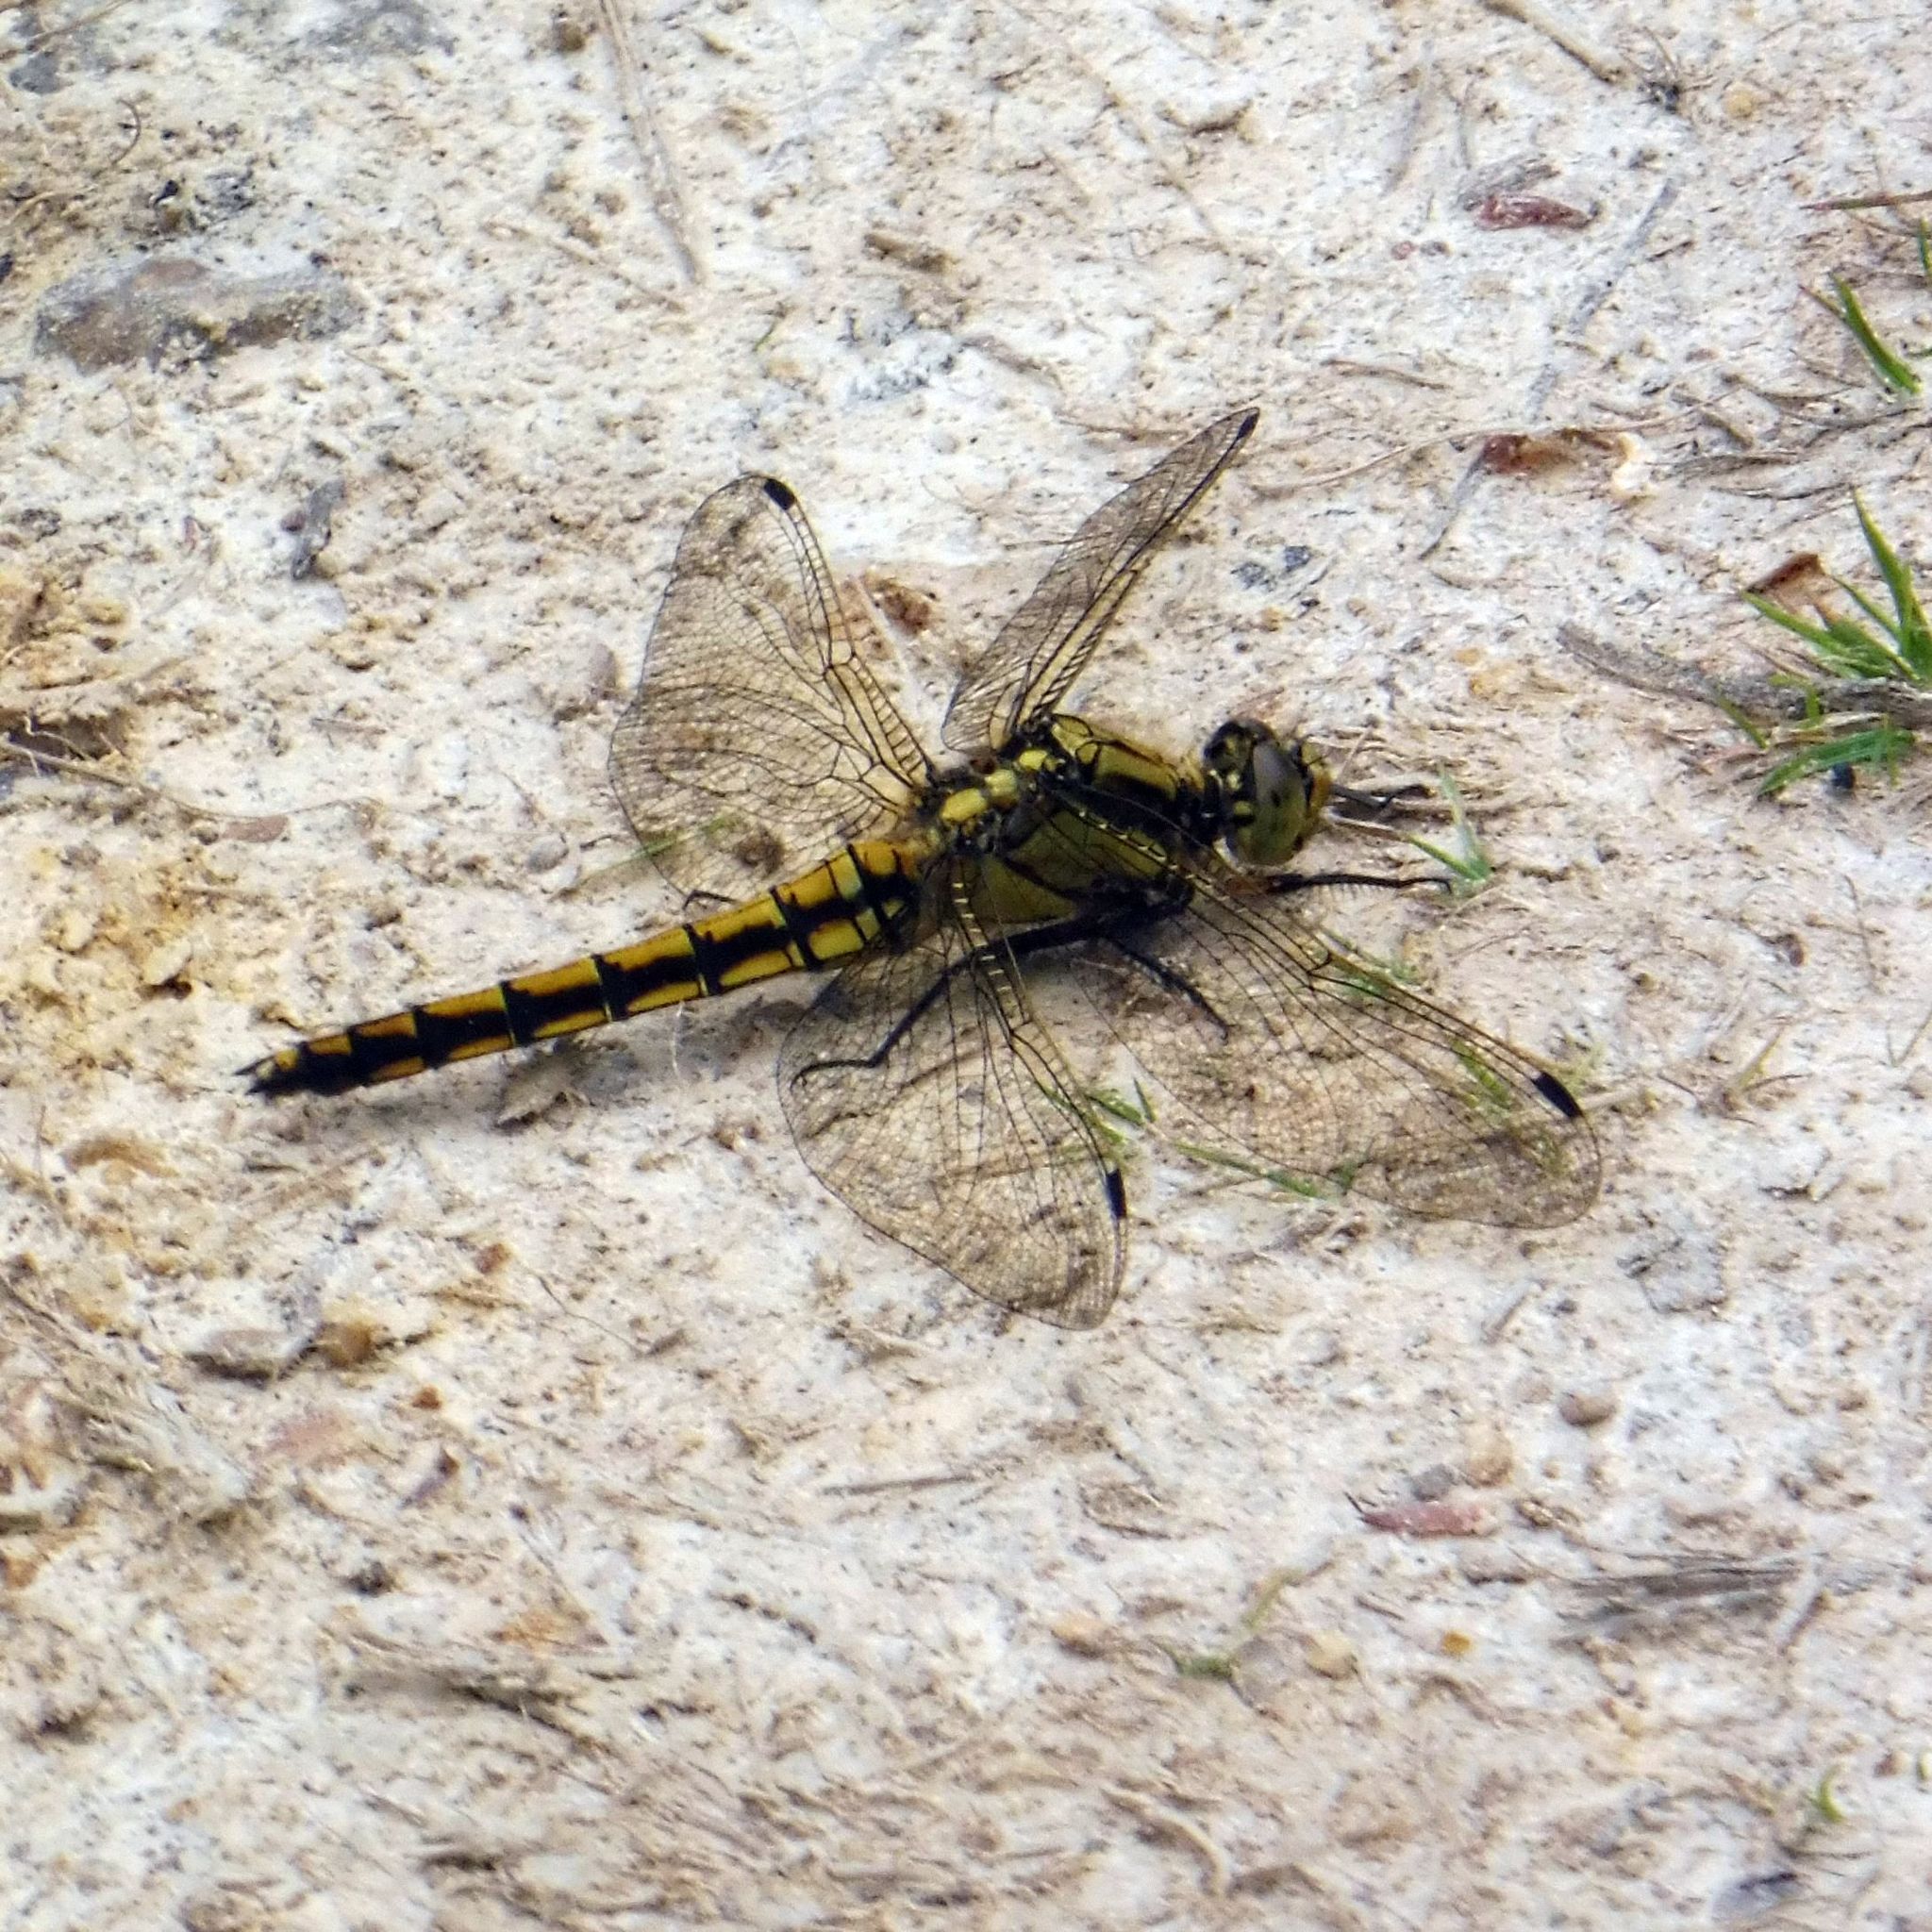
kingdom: Animalia
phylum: Arthropoda
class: Insecta
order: Odonata
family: Libellulidae
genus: Orthetrum
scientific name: Orthetrum cancellatum
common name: Black-tailed skimmer
